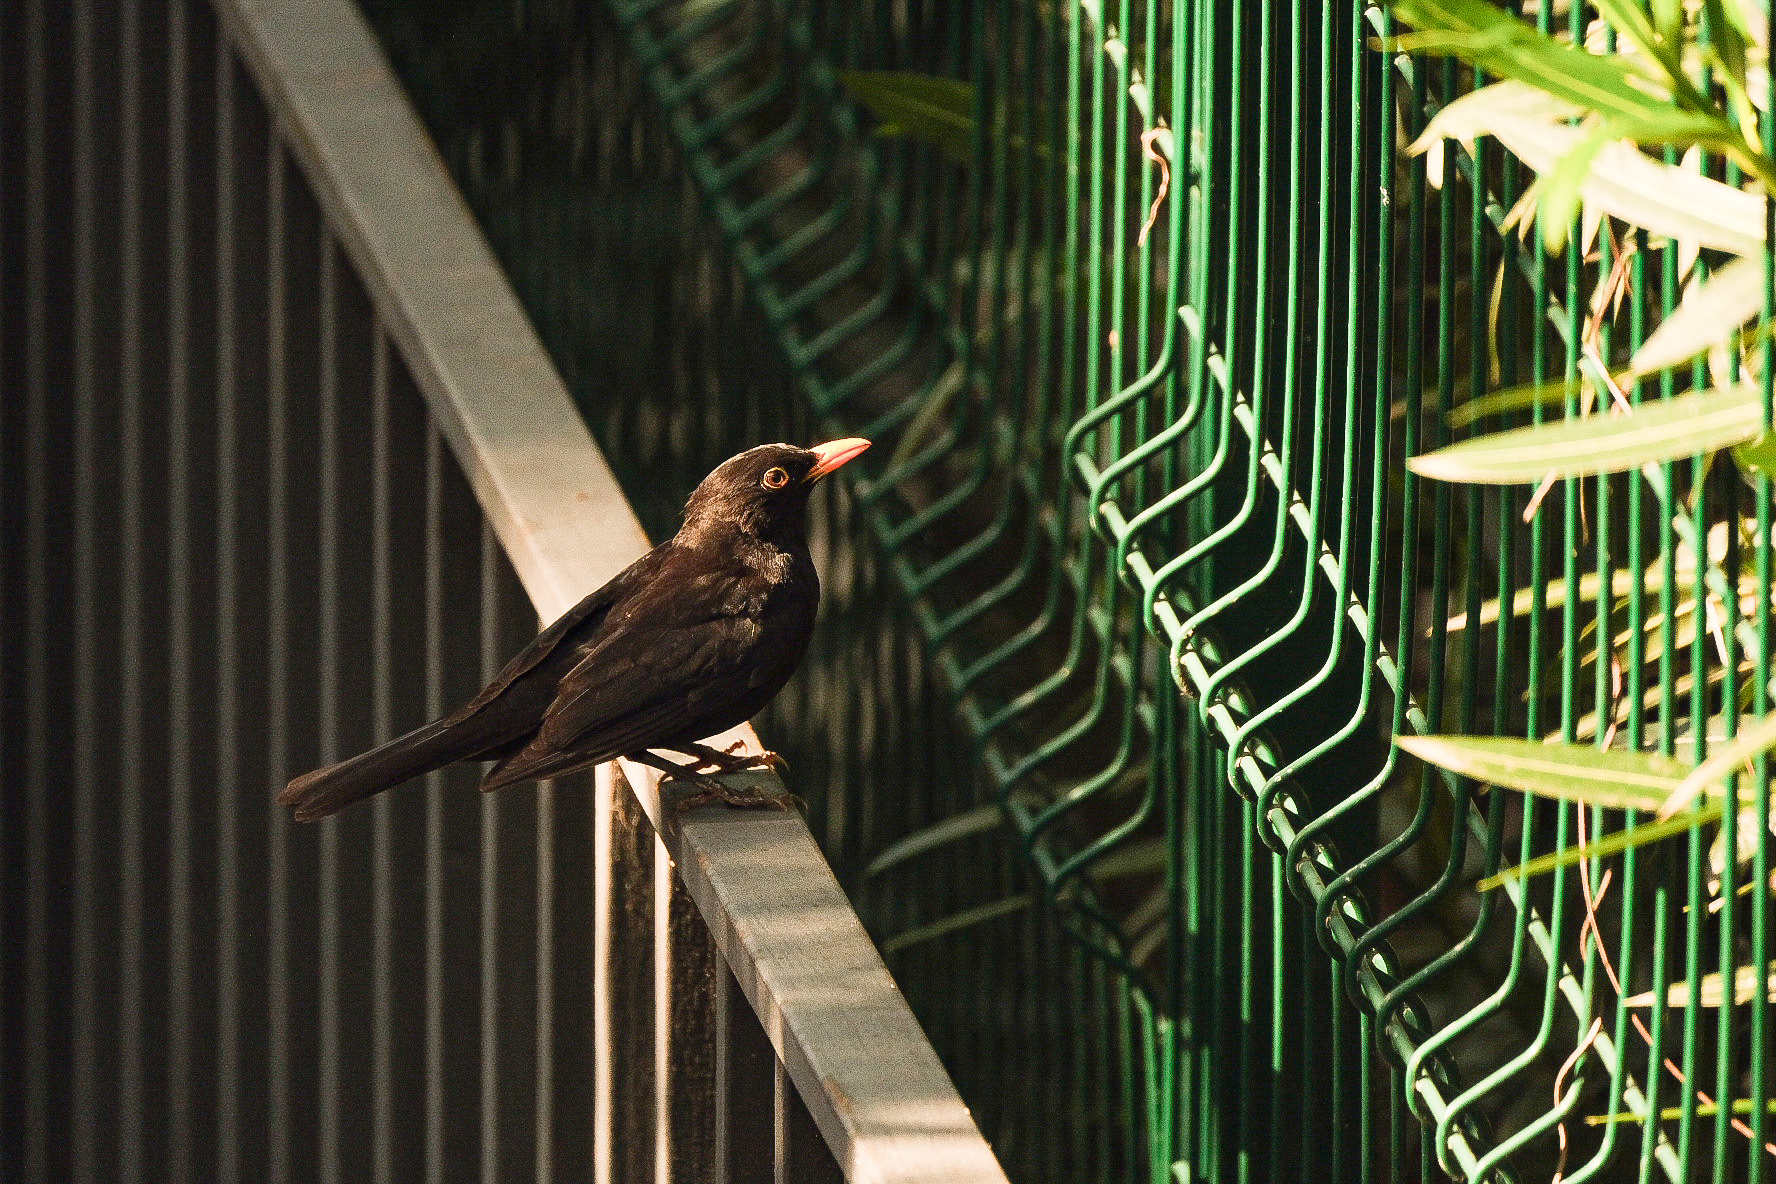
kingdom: Animalia
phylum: Chordata
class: Aves
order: Passeriformes
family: Turdidae
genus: Turdus
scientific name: Turdus merula
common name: Common blackbird
